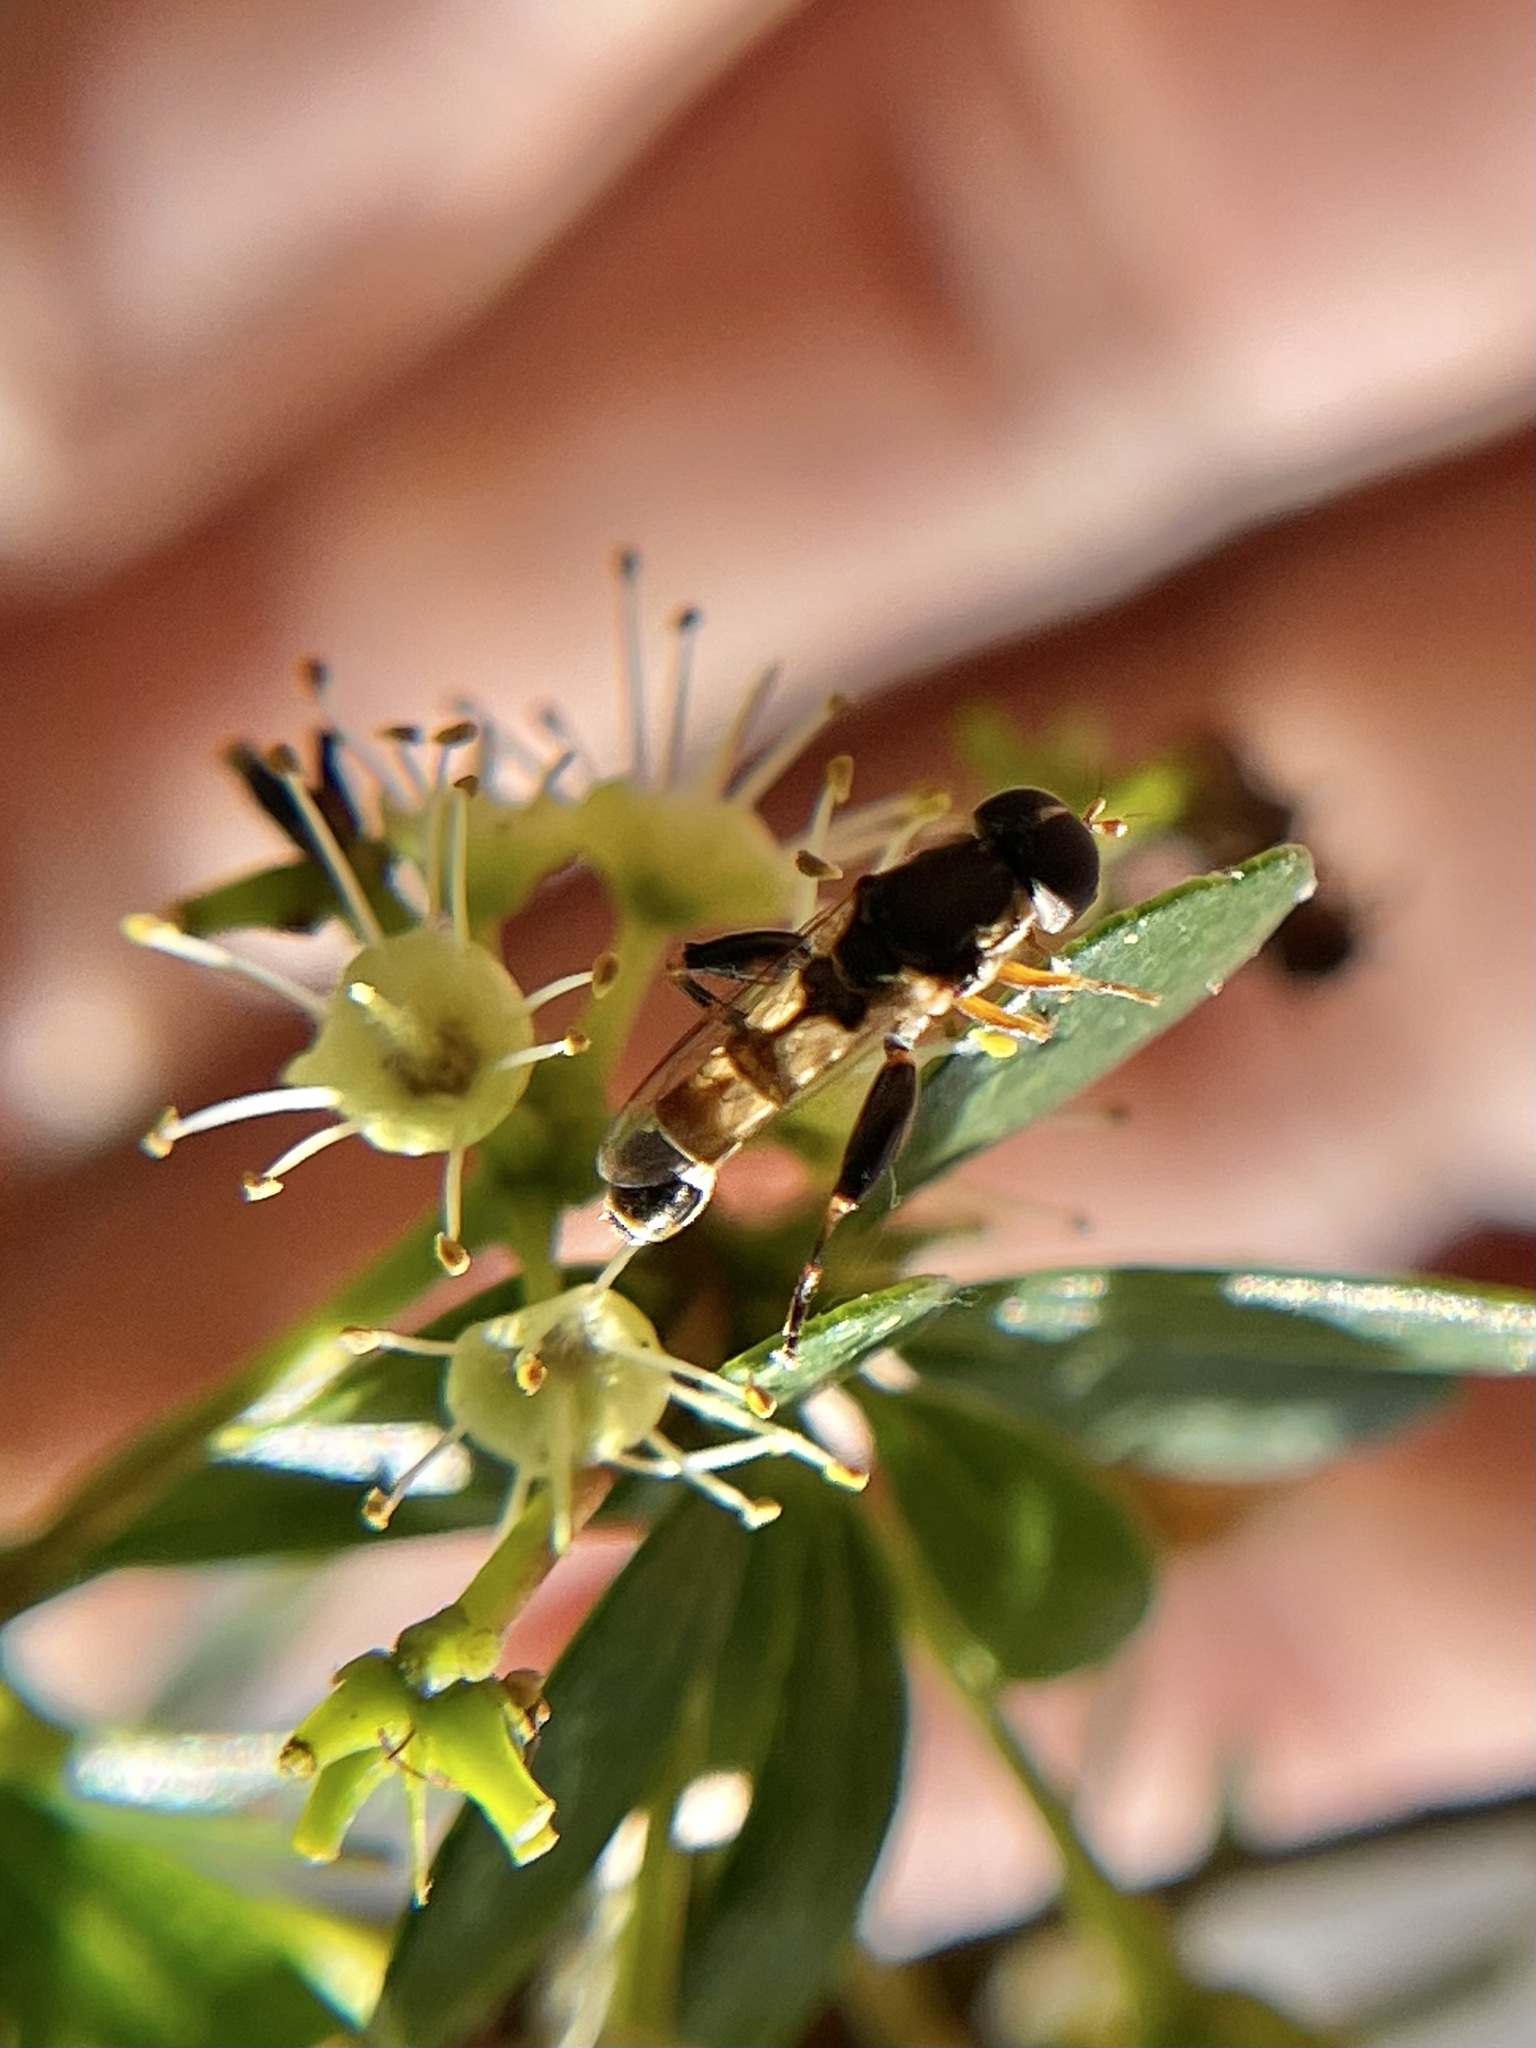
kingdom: Animalia
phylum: Arthropoda
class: Insecta
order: Diptera
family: Syrphidae
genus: Syritta
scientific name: Syritta pipiens
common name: Hover fly
